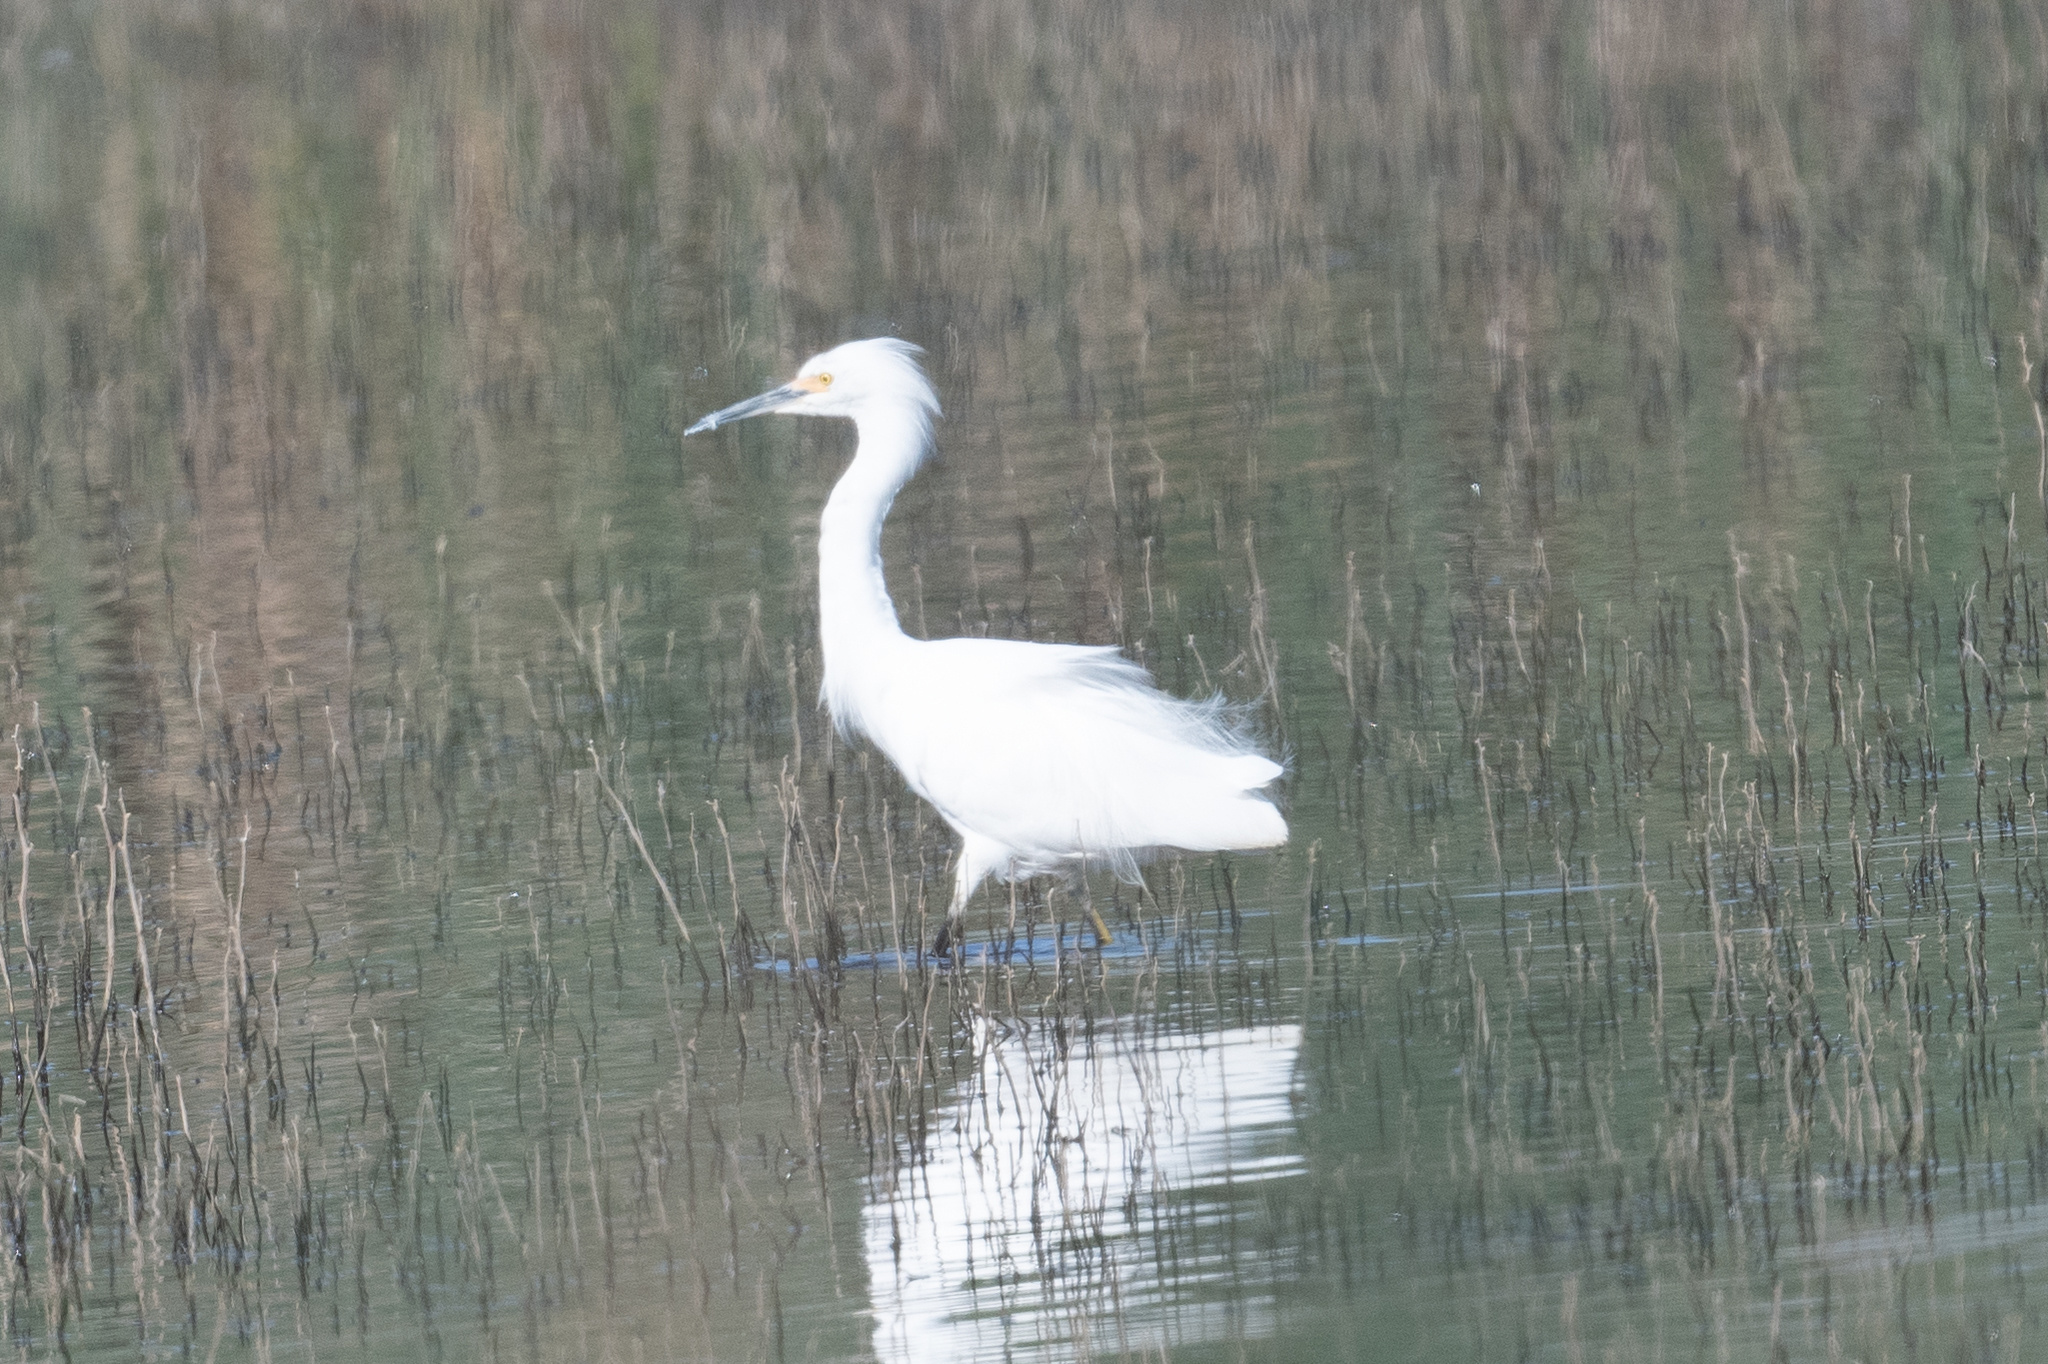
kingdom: Animalia
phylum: Chordata
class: Aves
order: Pelecaniformes
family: Ardeidae
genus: Egretta
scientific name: Egretta thula
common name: Snowy egret
